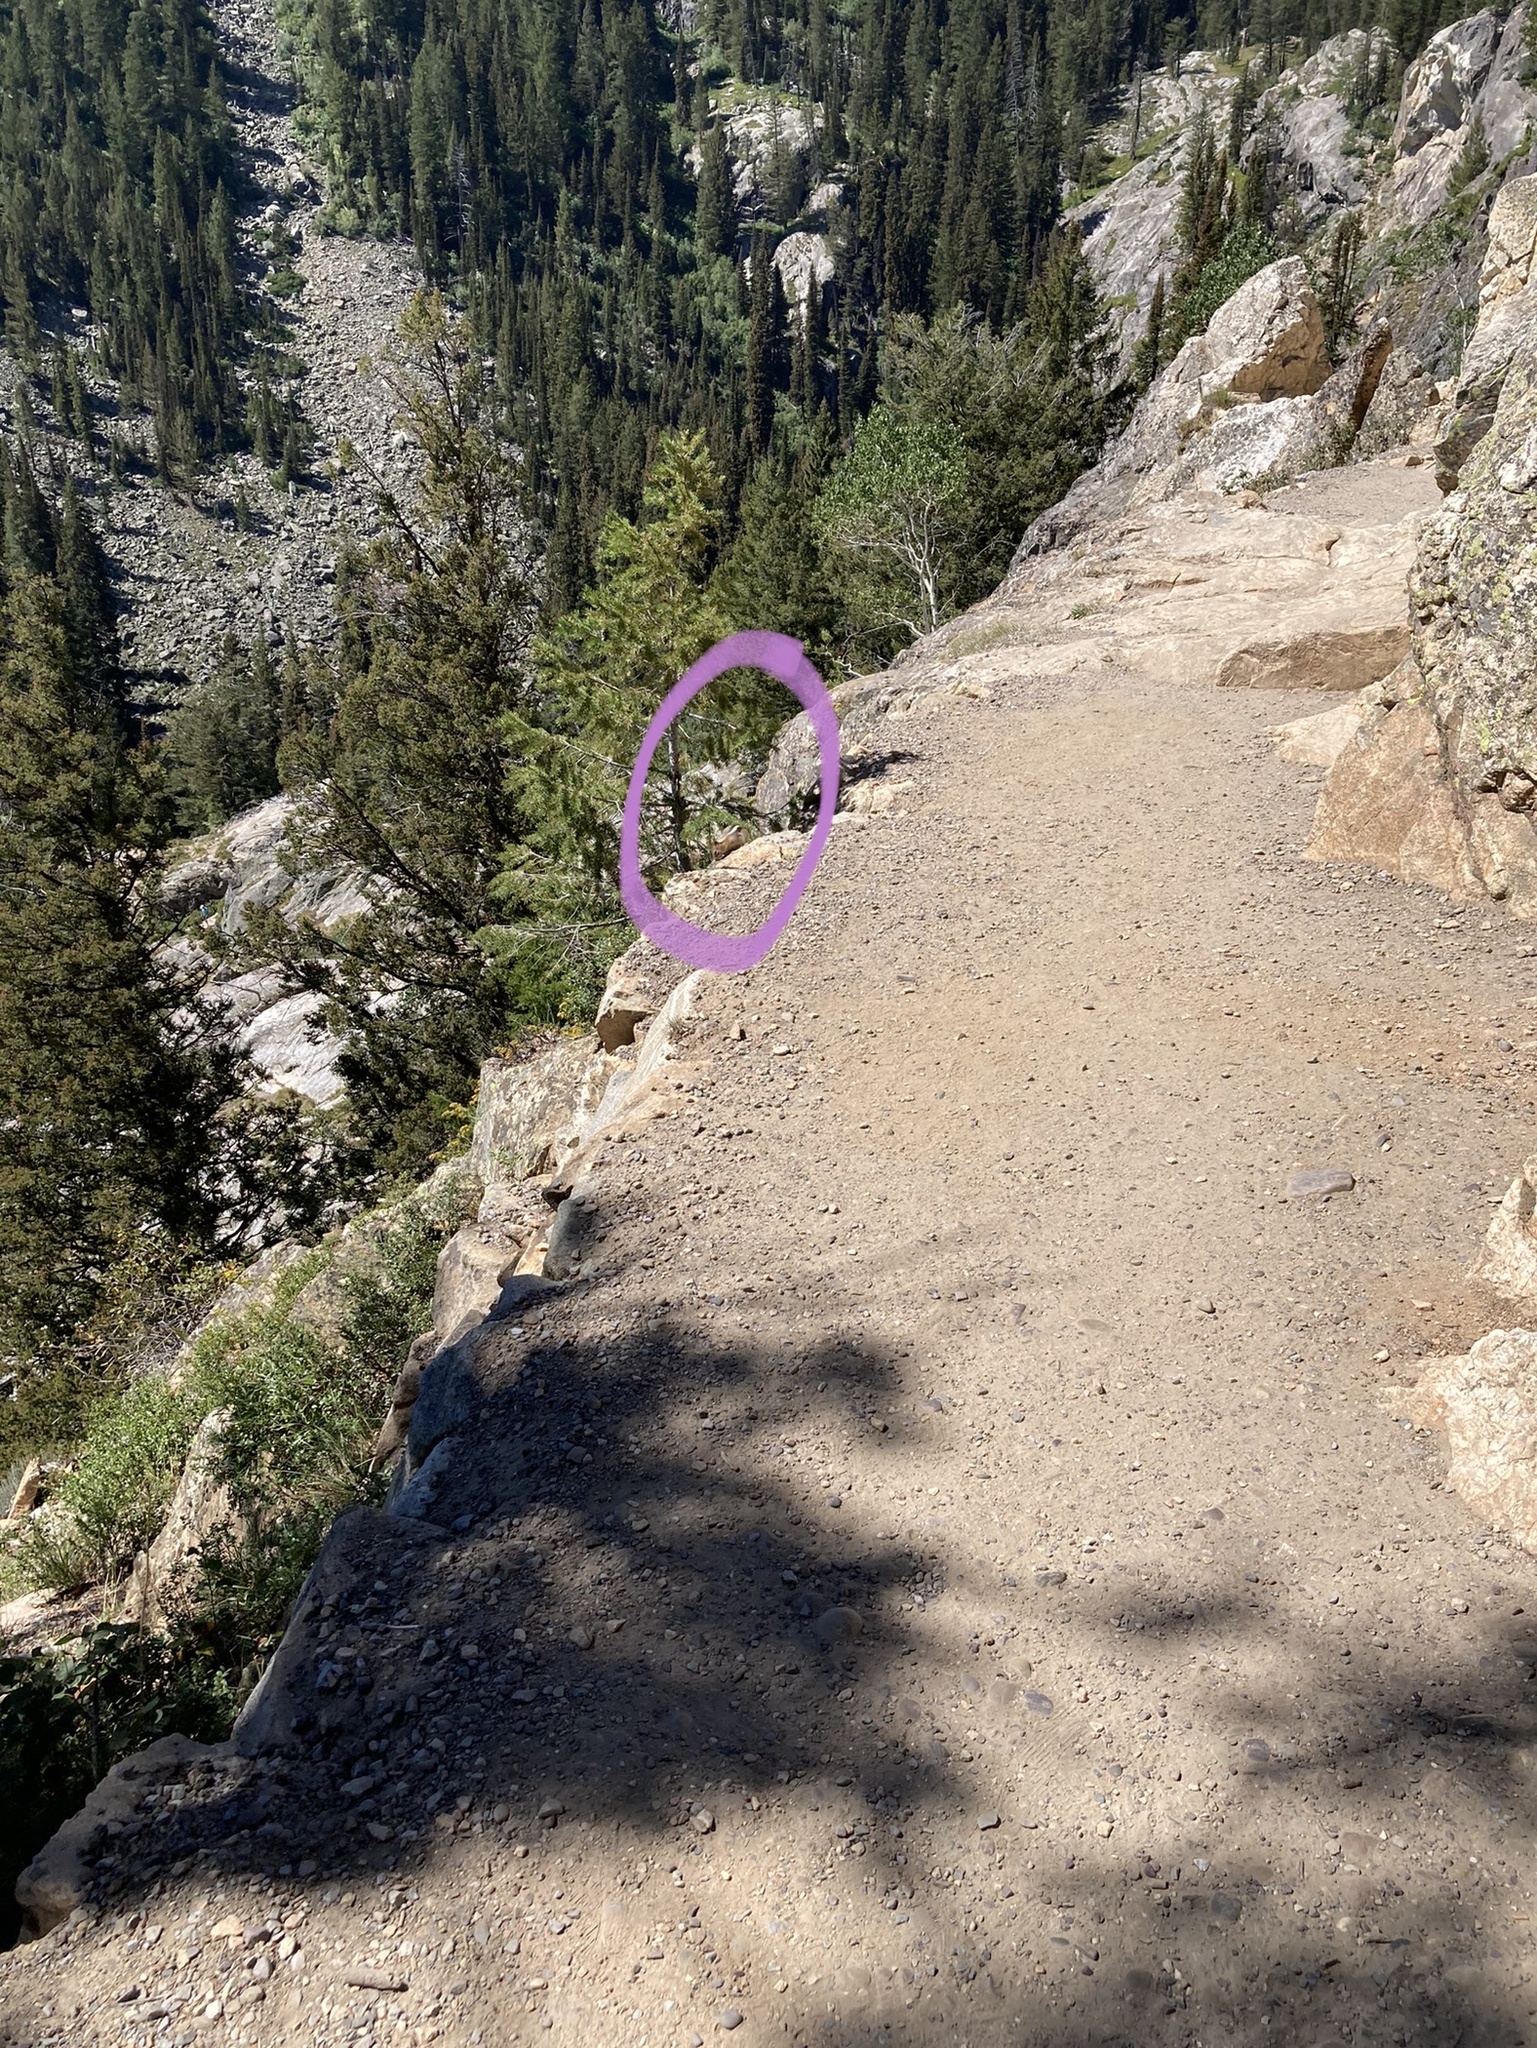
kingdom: Animalia
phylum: Chordata
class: Mammalia
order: Rodentia
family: Sciuridae
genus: Callospermophilus
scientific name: Callospermophilus lateralis
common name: Golden-mantled ground squirrel
